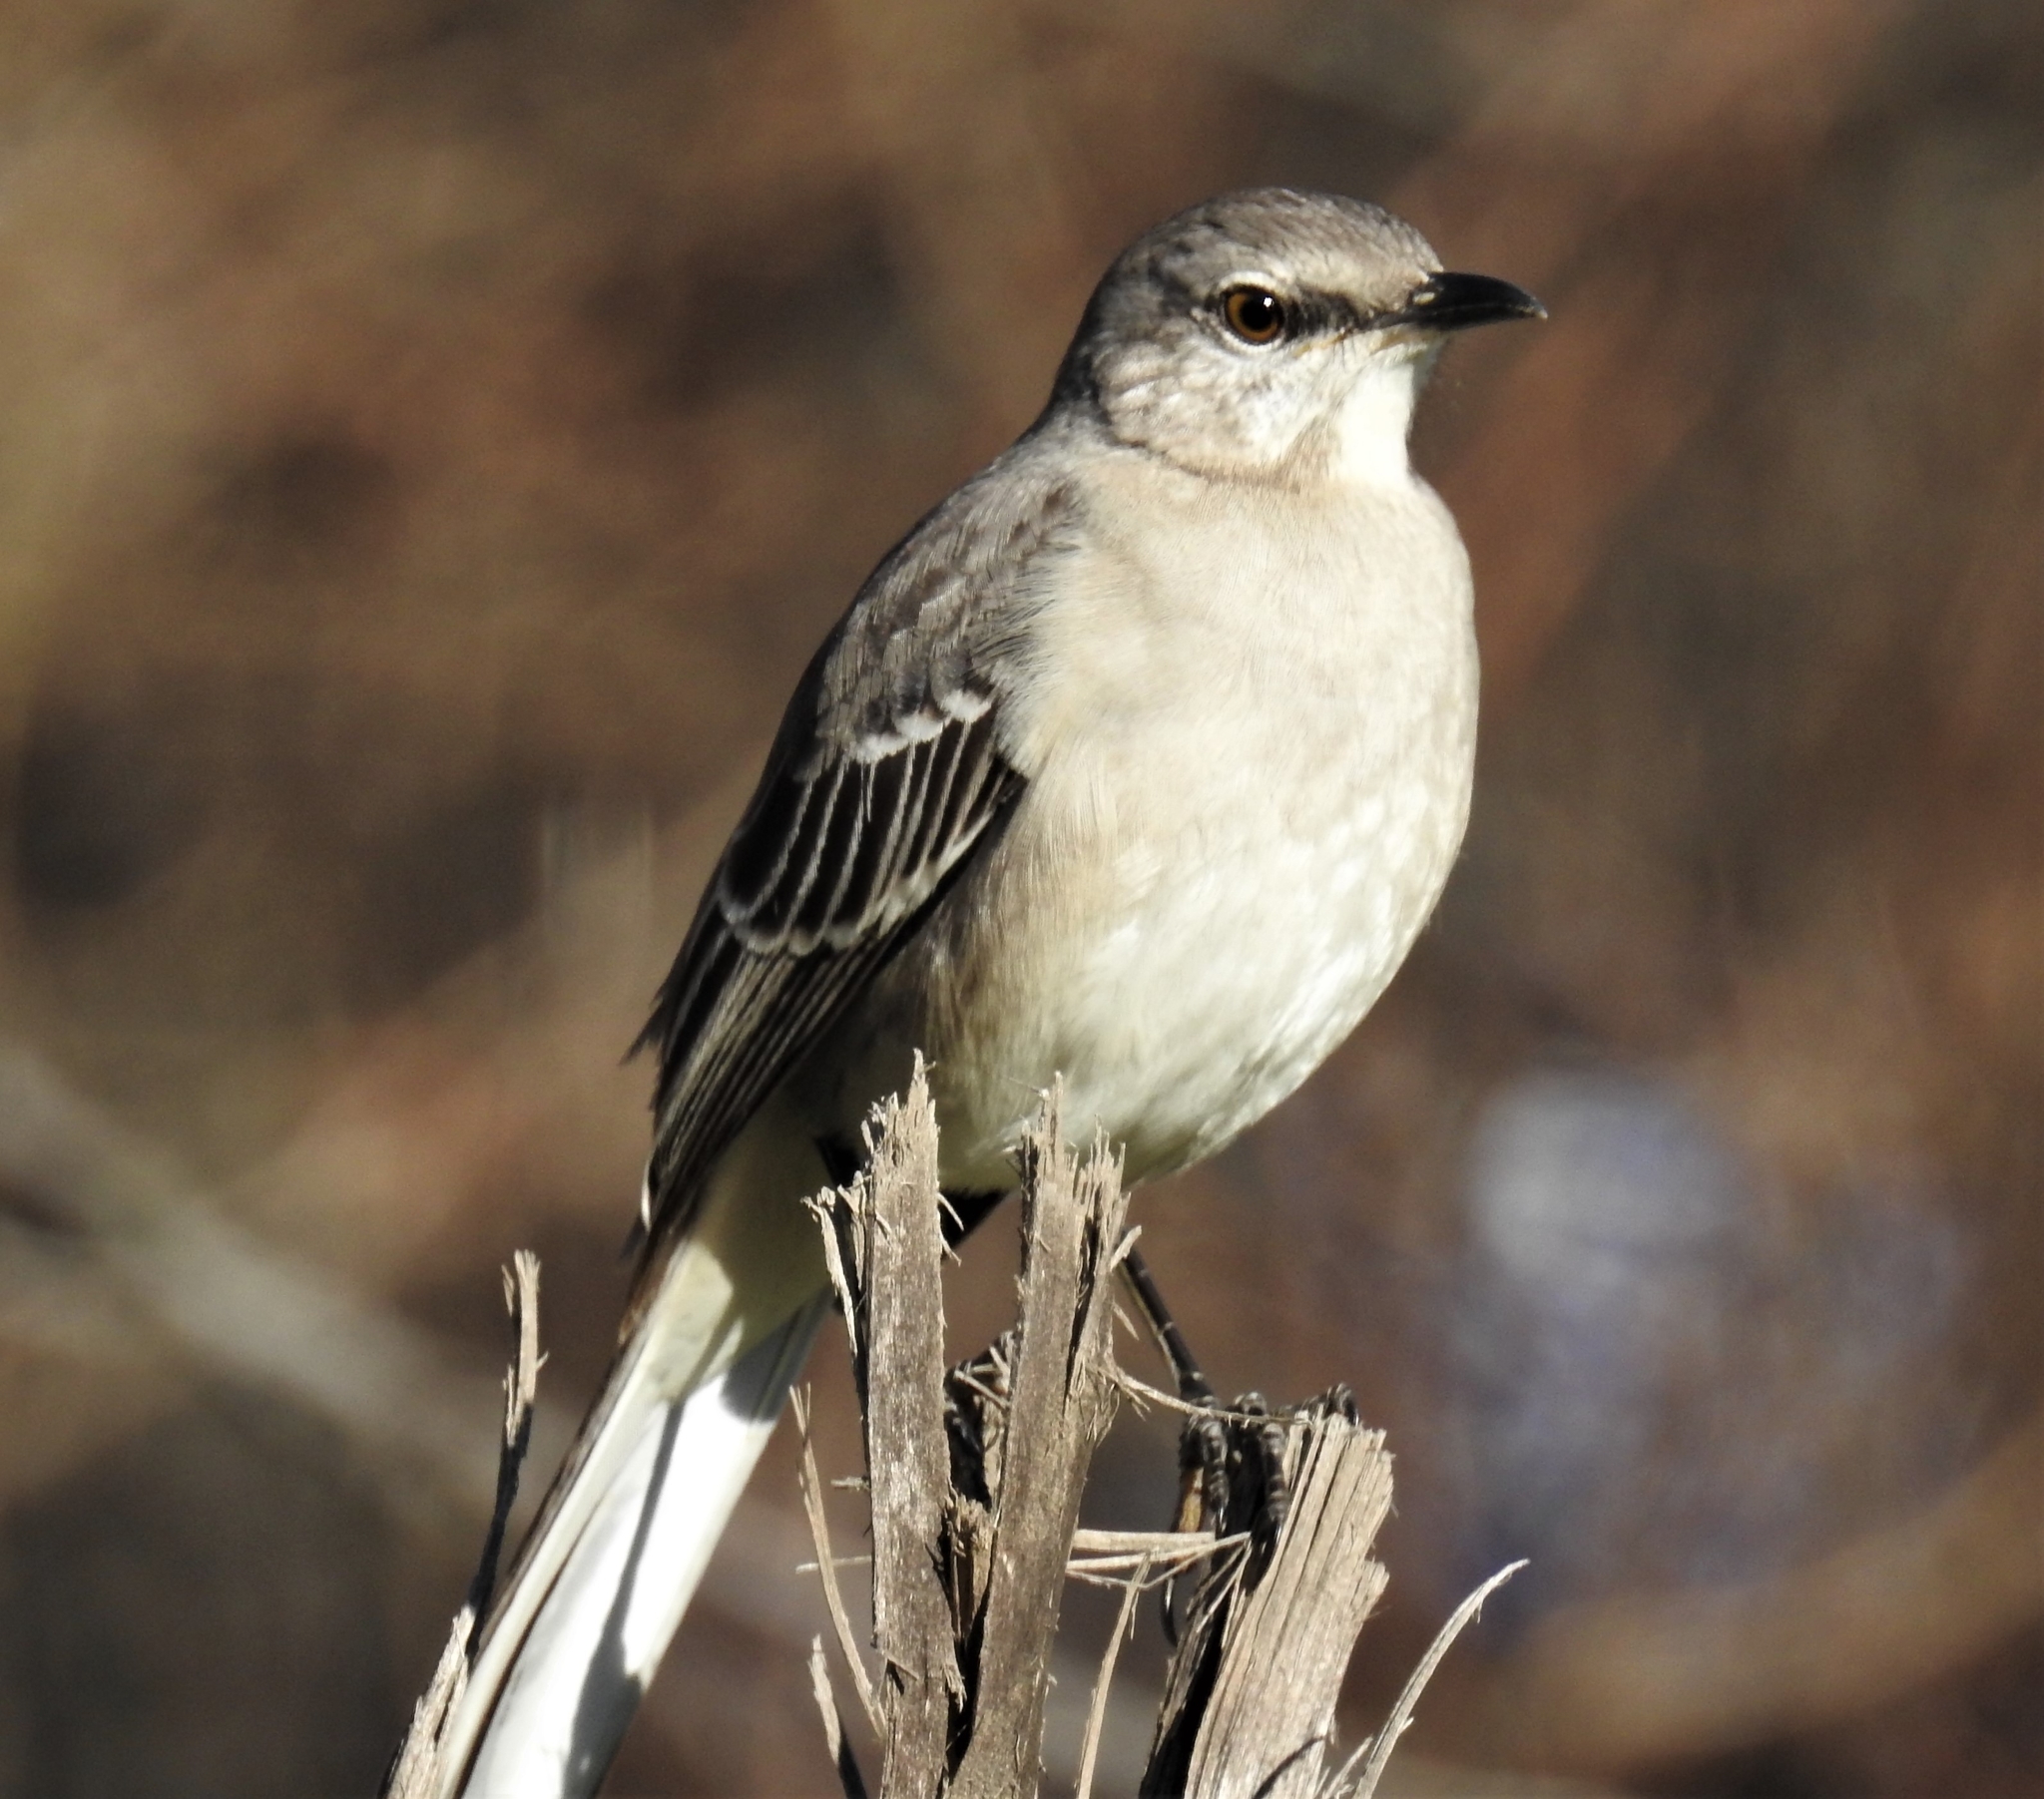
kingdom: Animalia
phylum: Chordata
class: Aves
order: Passeriformes
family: Mimidae
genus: Mimus
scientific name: Mimus polyglottos
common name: Northern mockingbird
